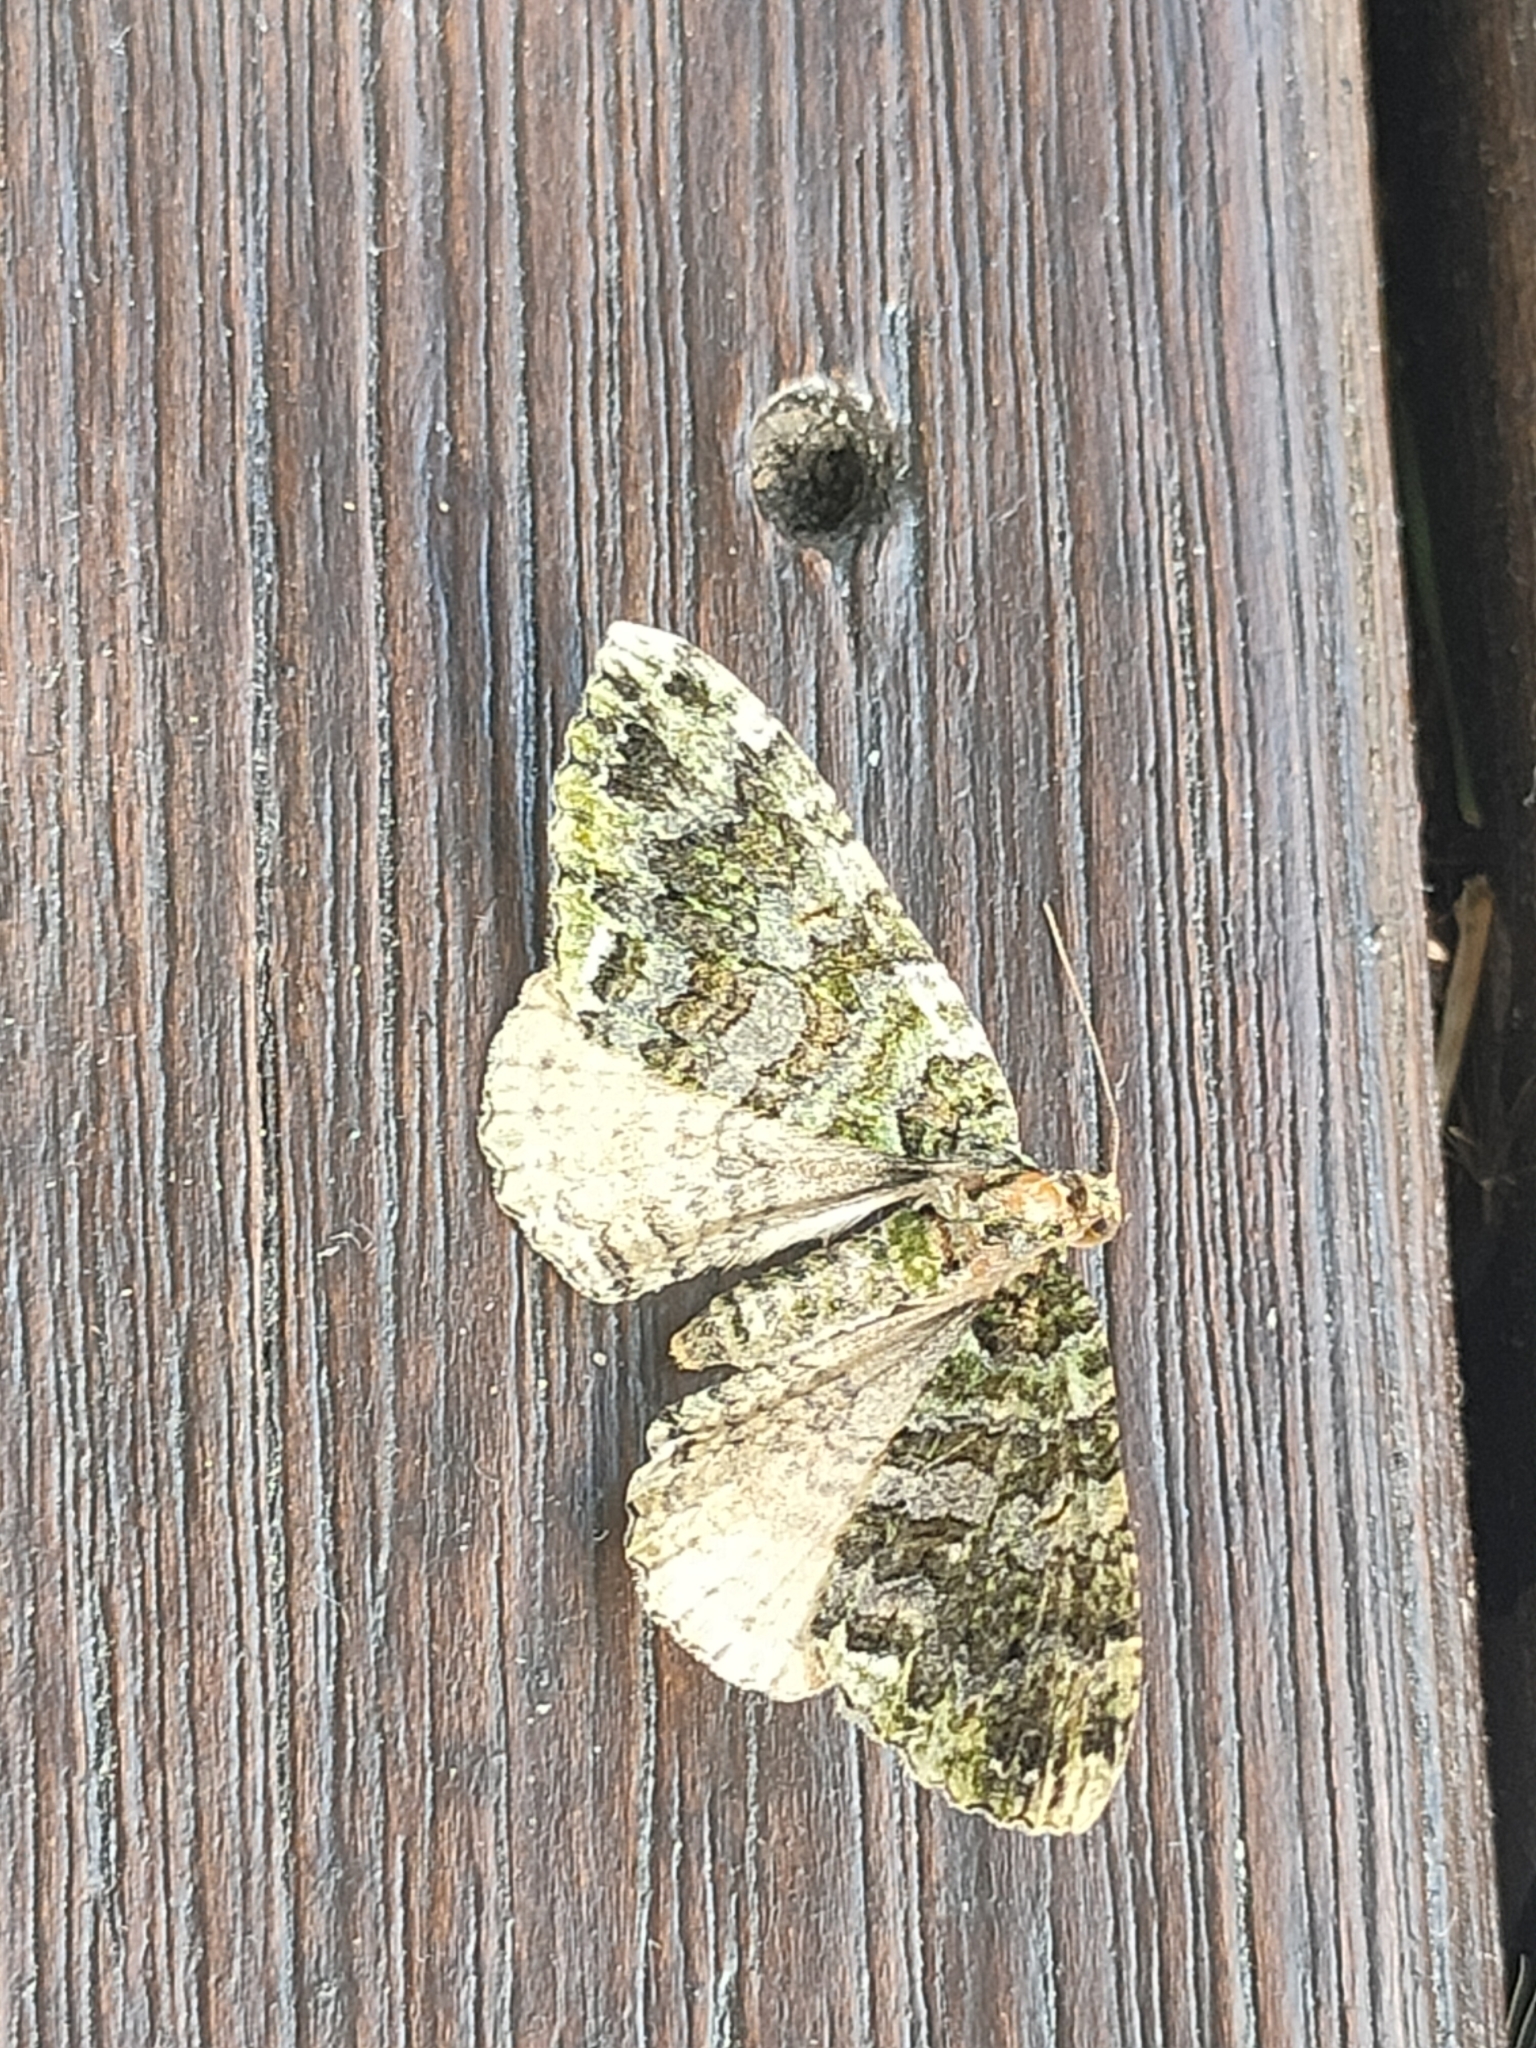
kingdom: Animalia
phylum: Arthropoda
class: Insecta
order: Lepidoptera
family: Geometridae
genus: Austrocidaria
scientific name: Austrocidaria similata
